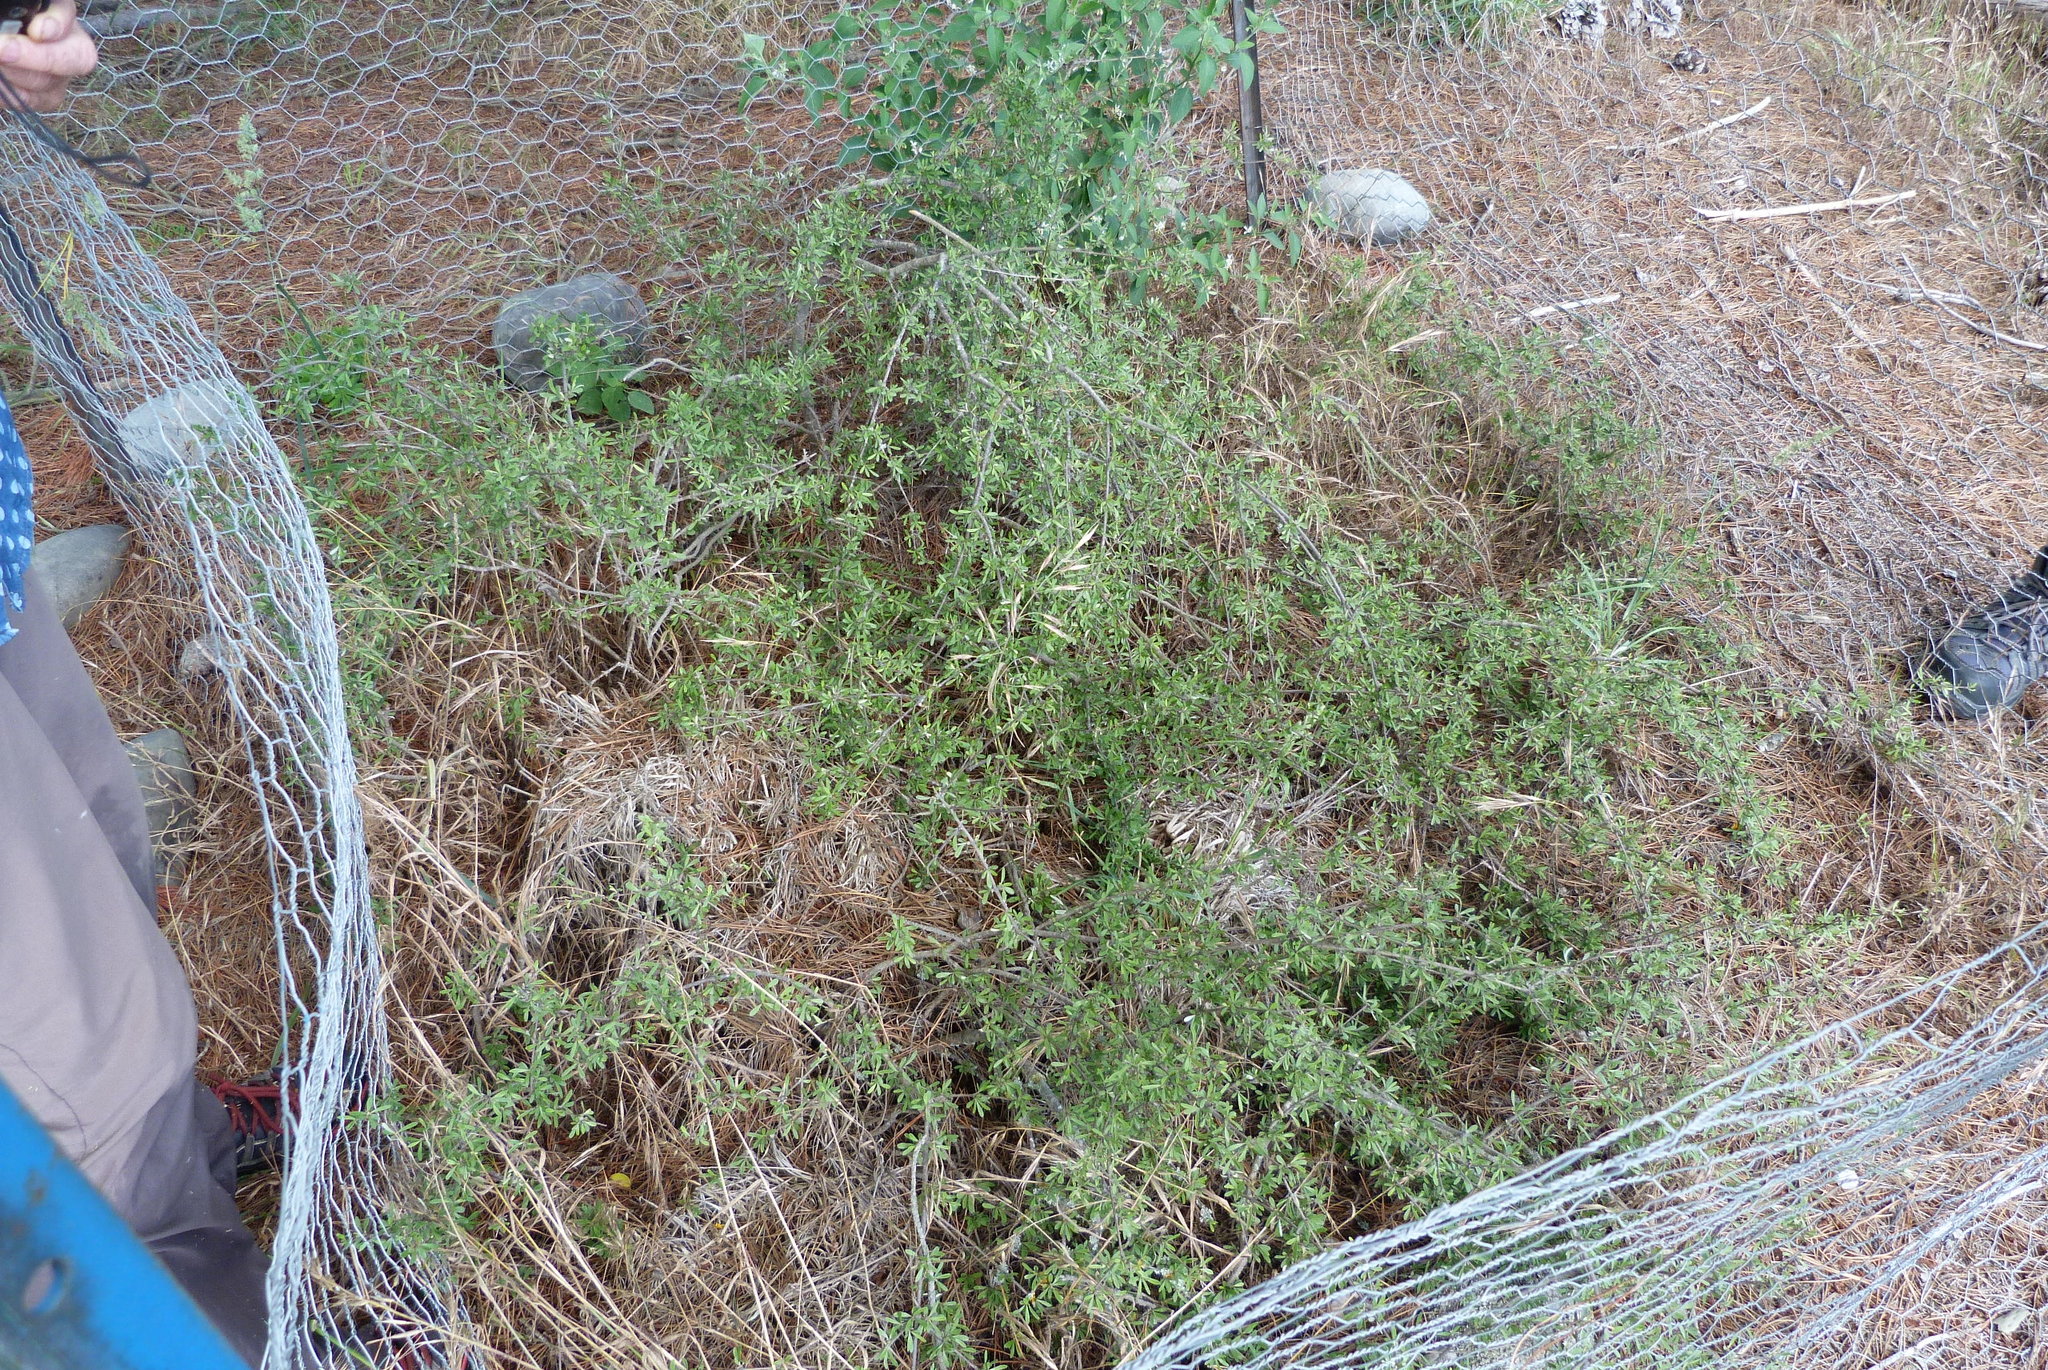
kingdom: Plantae
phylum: Tracheophyta
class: Magnoliopsida
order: Asterales
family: Asteraceae
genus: Olearia
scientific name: Olearia adenocarpa
